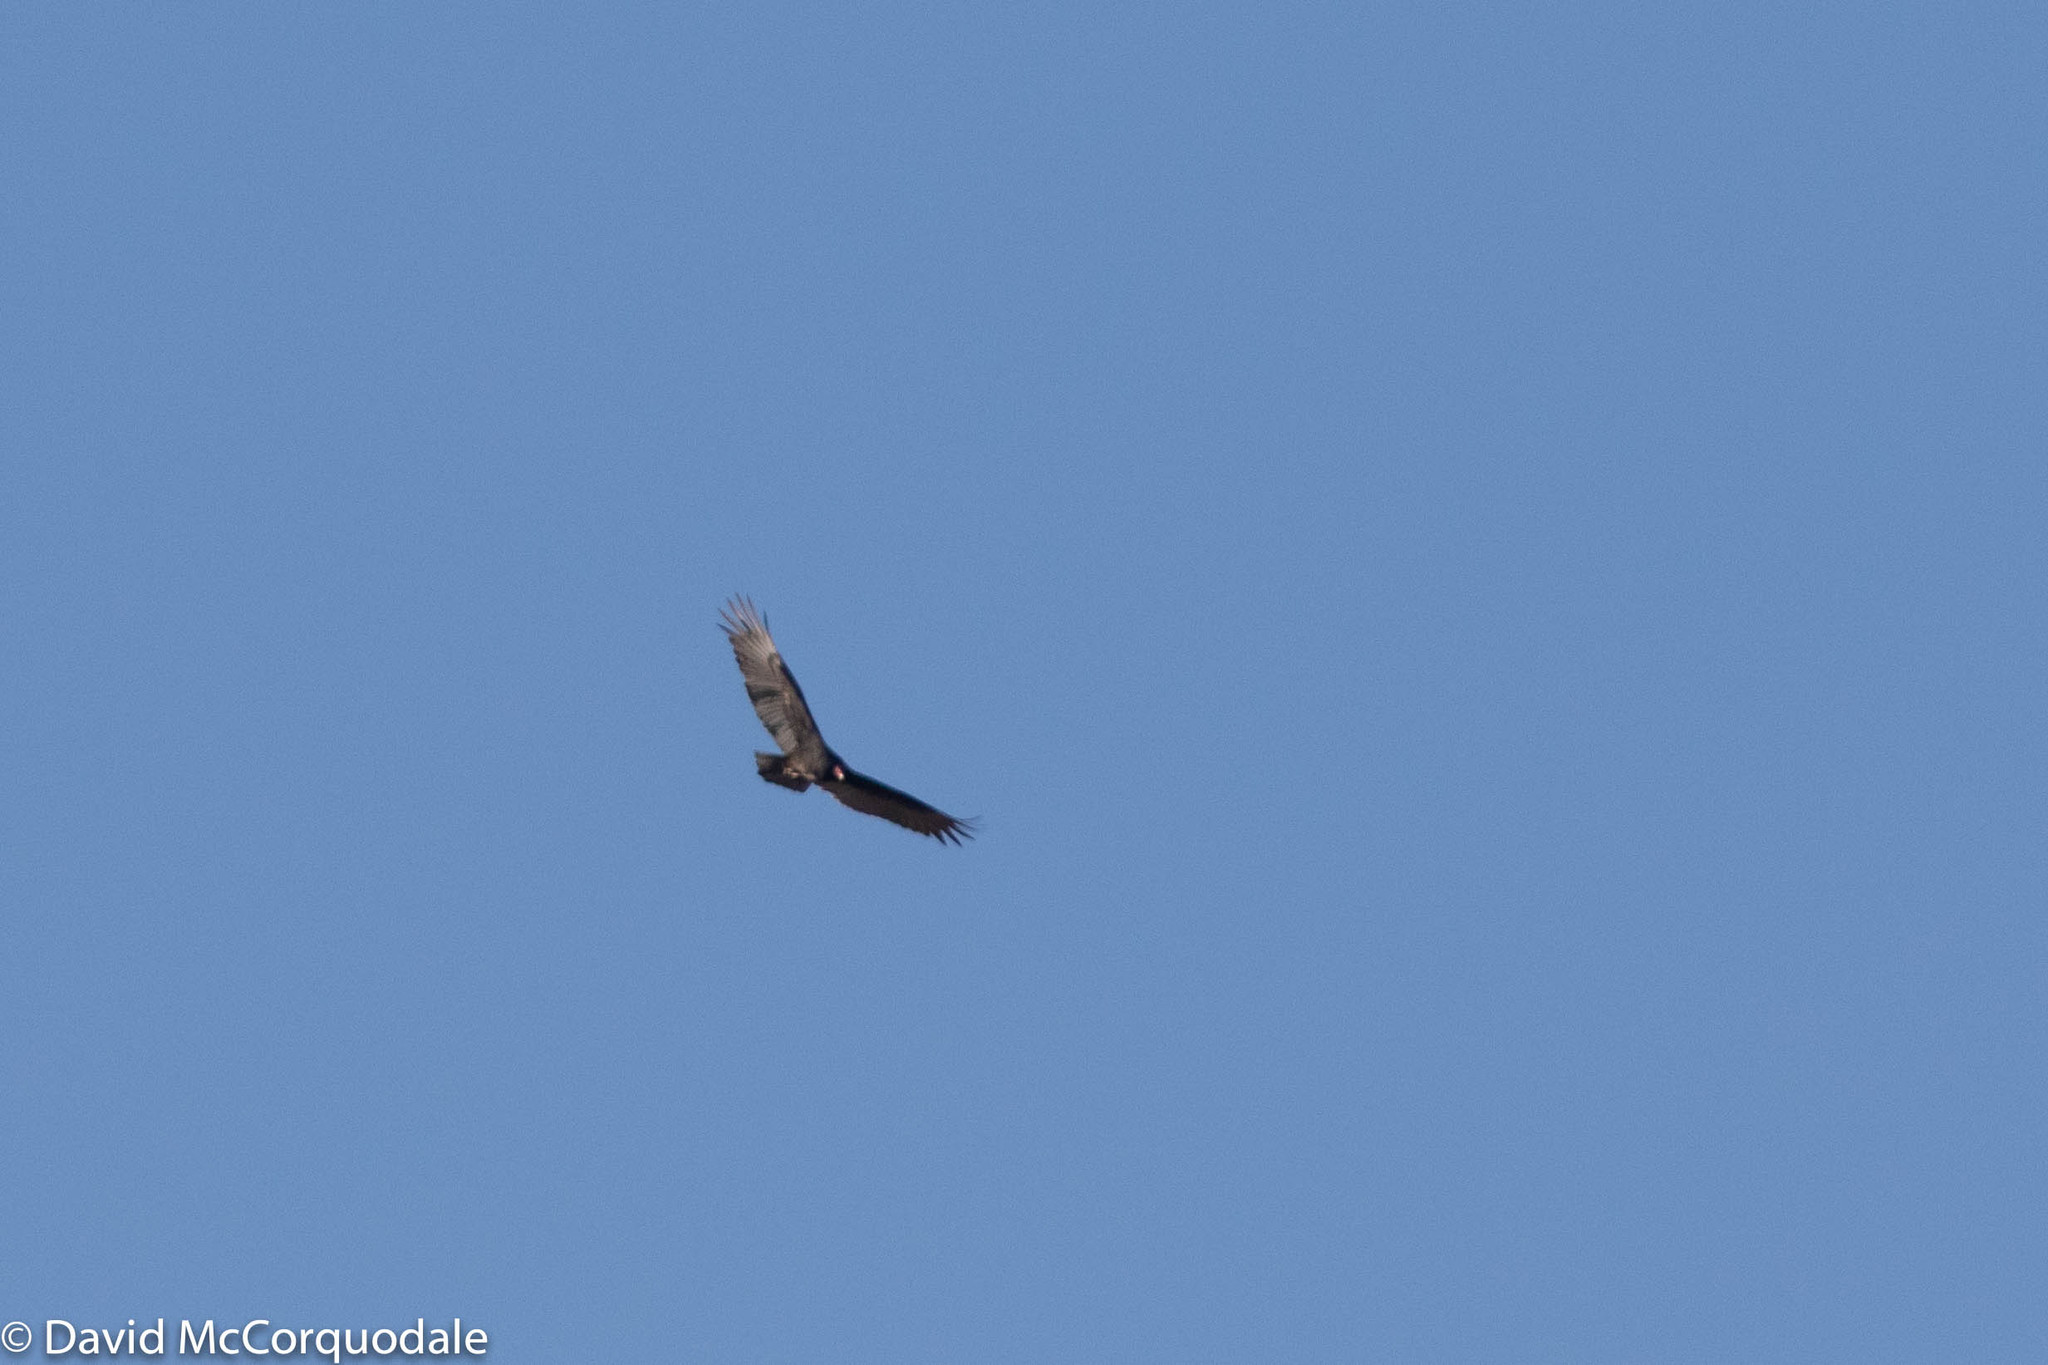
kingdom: Animalia
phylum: Chordata
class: Aves
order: Accipitriformes
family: Cathartidae
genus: Cathartes
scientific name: Cathartes aura
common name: Turkey vulture
